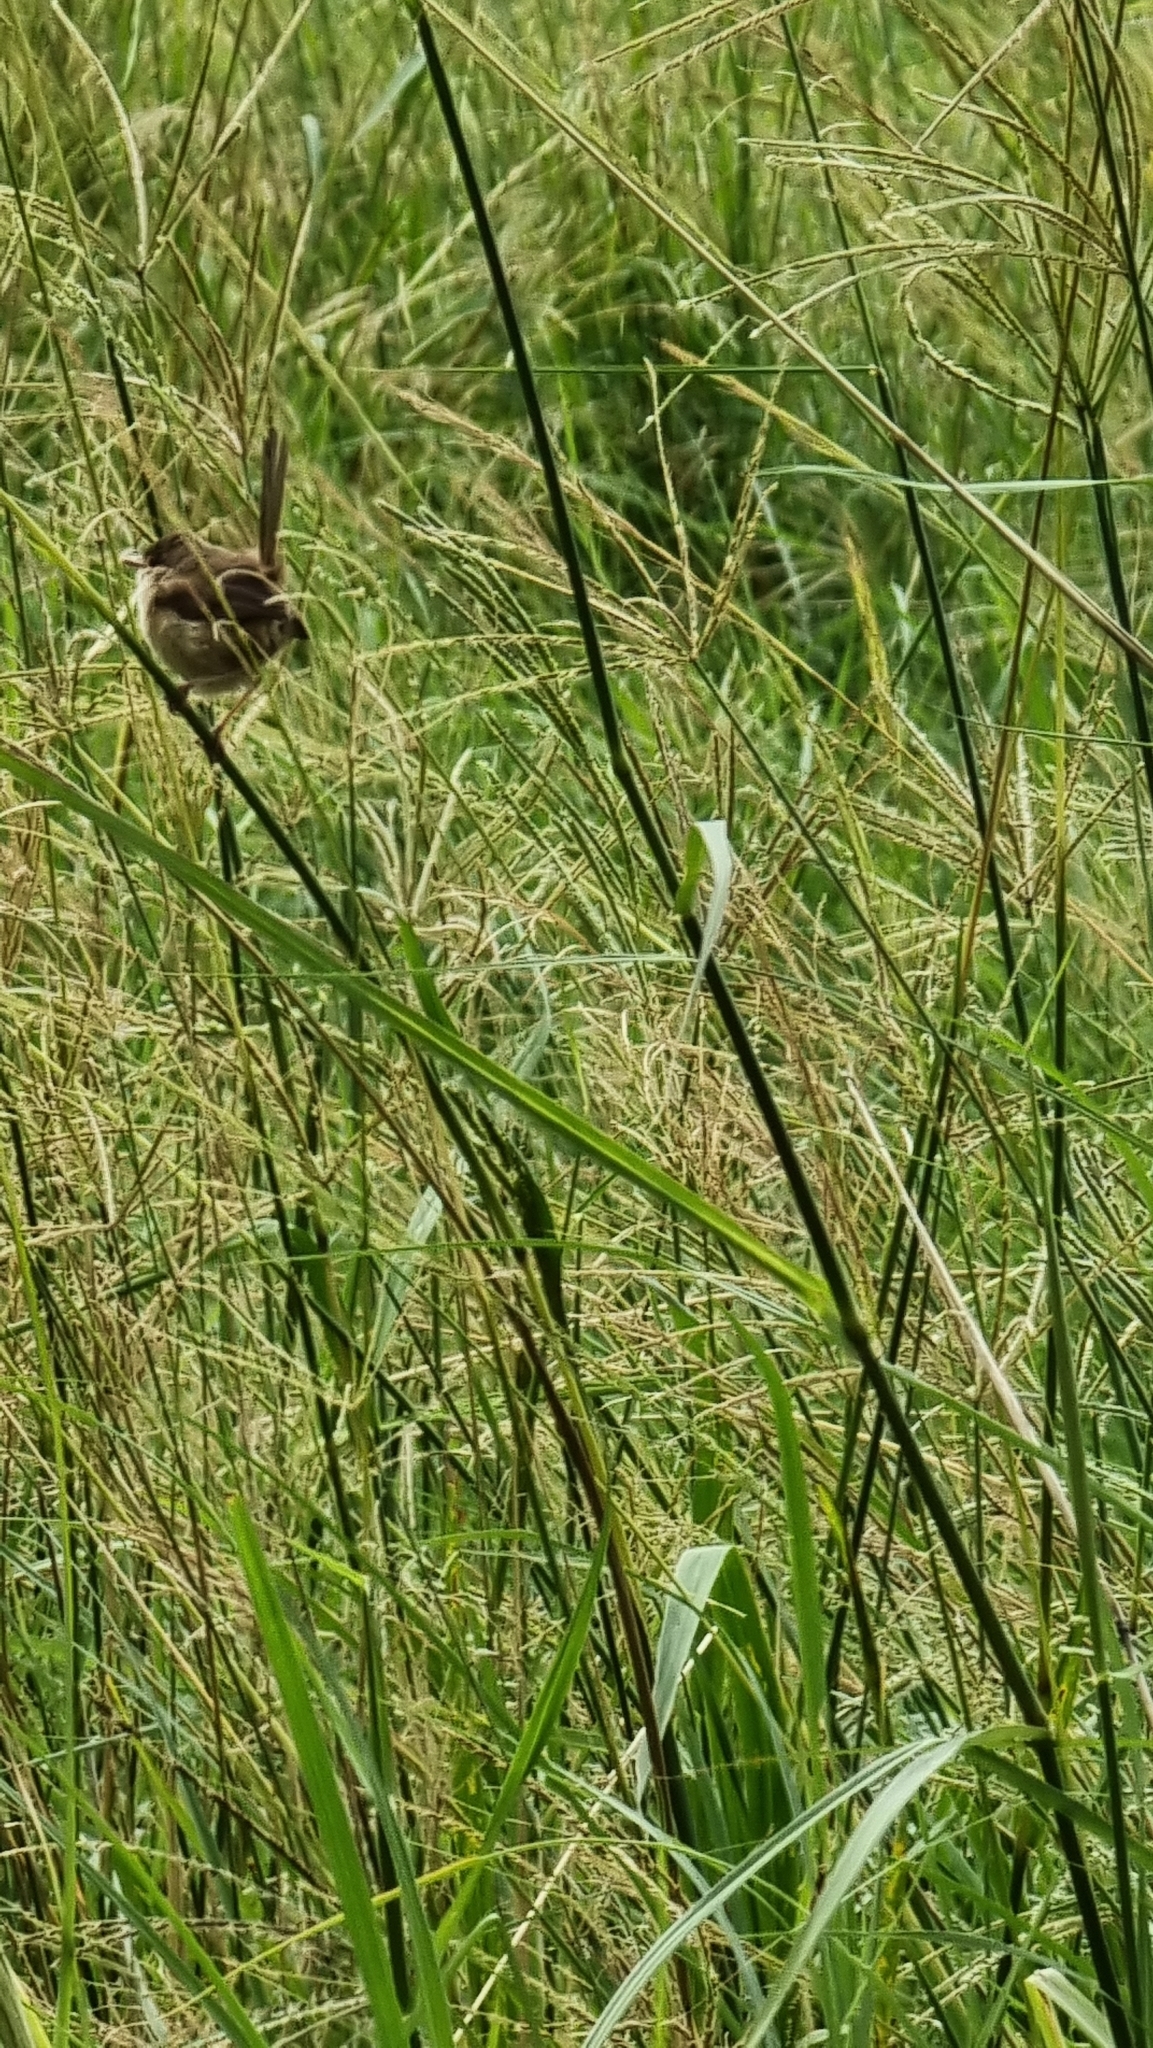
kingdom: Animalia
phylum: Chordata
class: Aves
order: Passeriformes
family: Maluridae
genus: Malurus
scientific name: Malurus melanocephalus
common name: Red-backed fairywren
